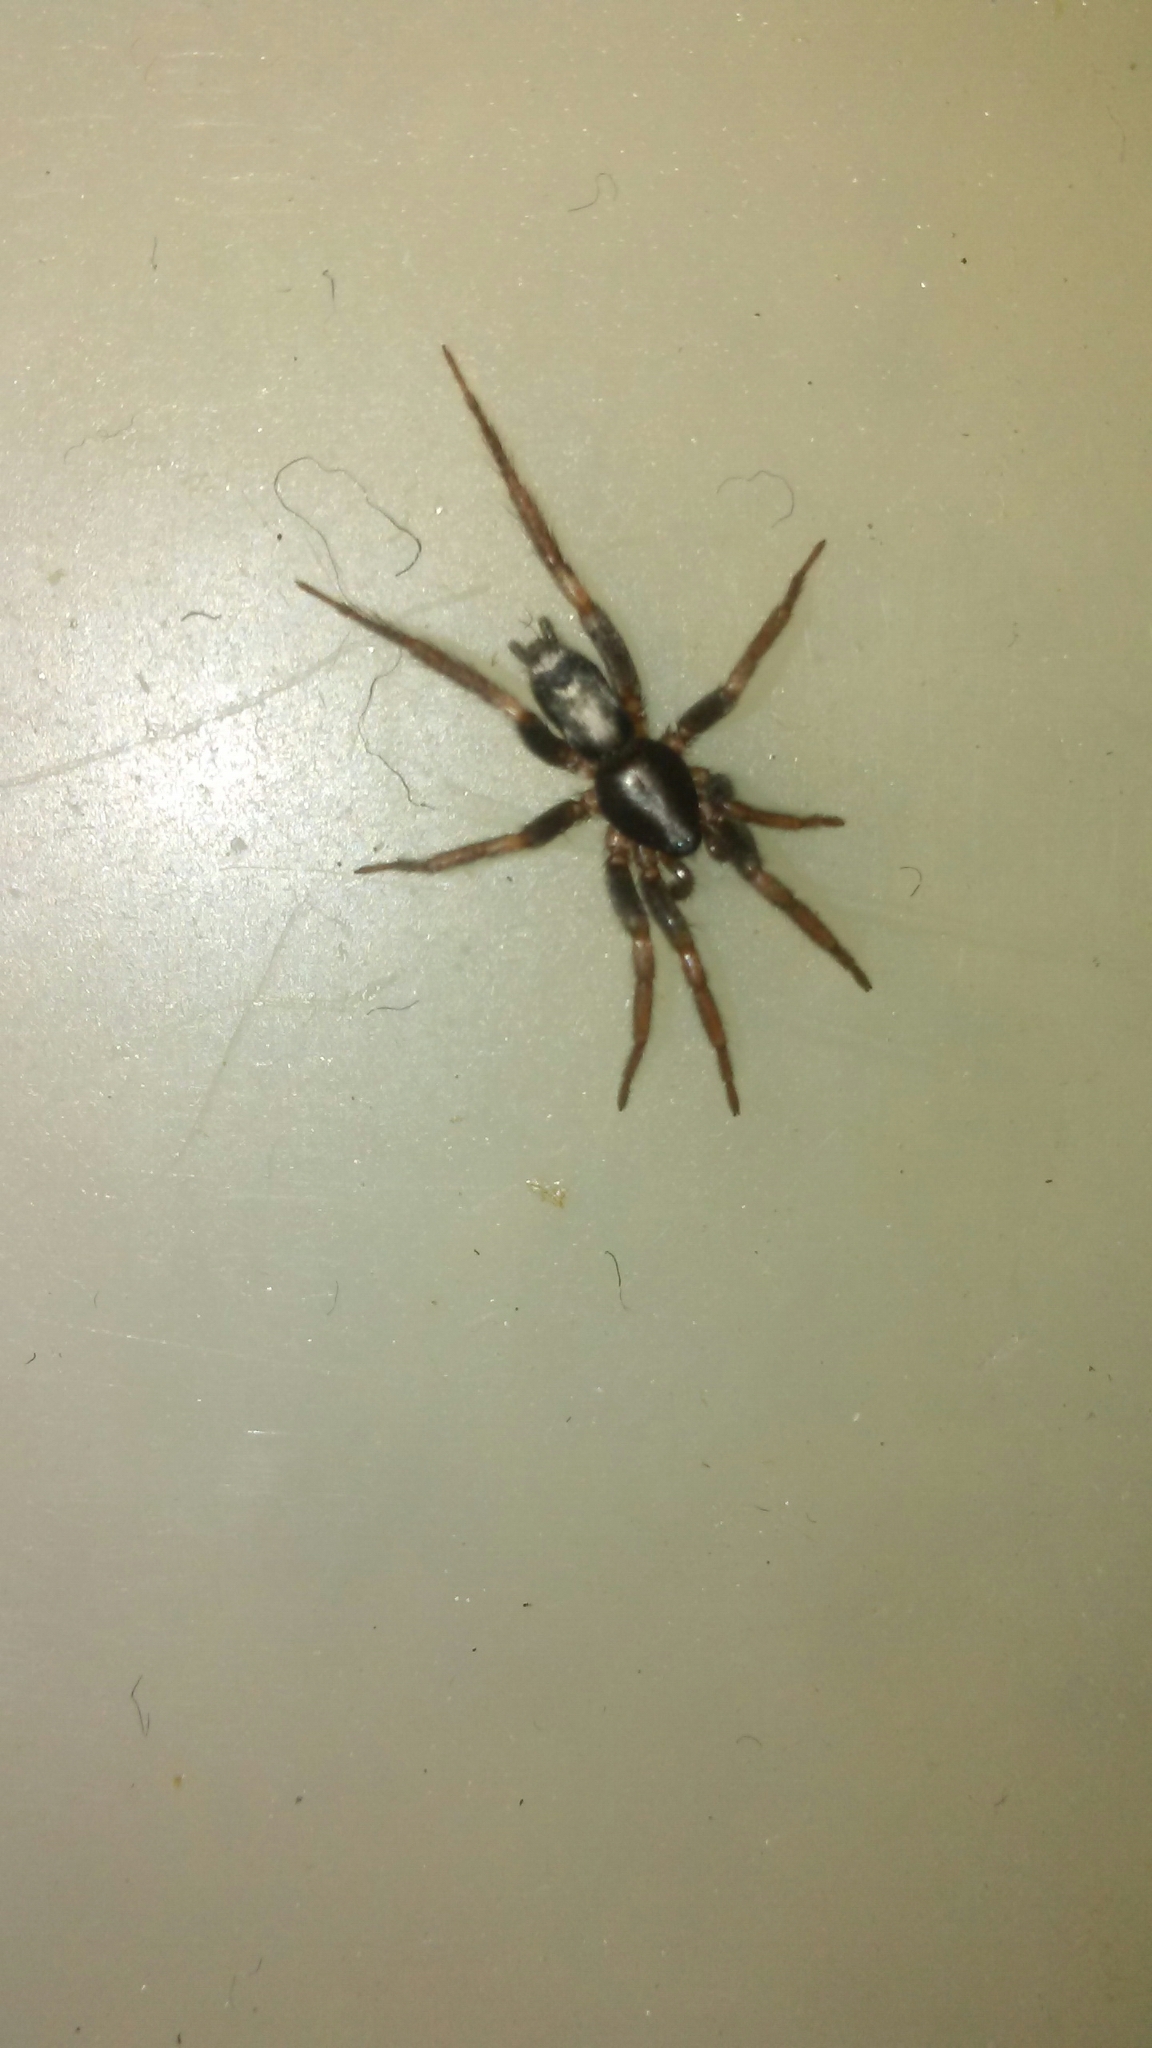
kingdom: Animalia
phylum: Arthropoda
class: Arachnida
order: Araneae
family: Gnaphosidae
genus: Herpyllus
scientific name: Herpyllus ecclesiasticus
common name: Eastern parson spider
